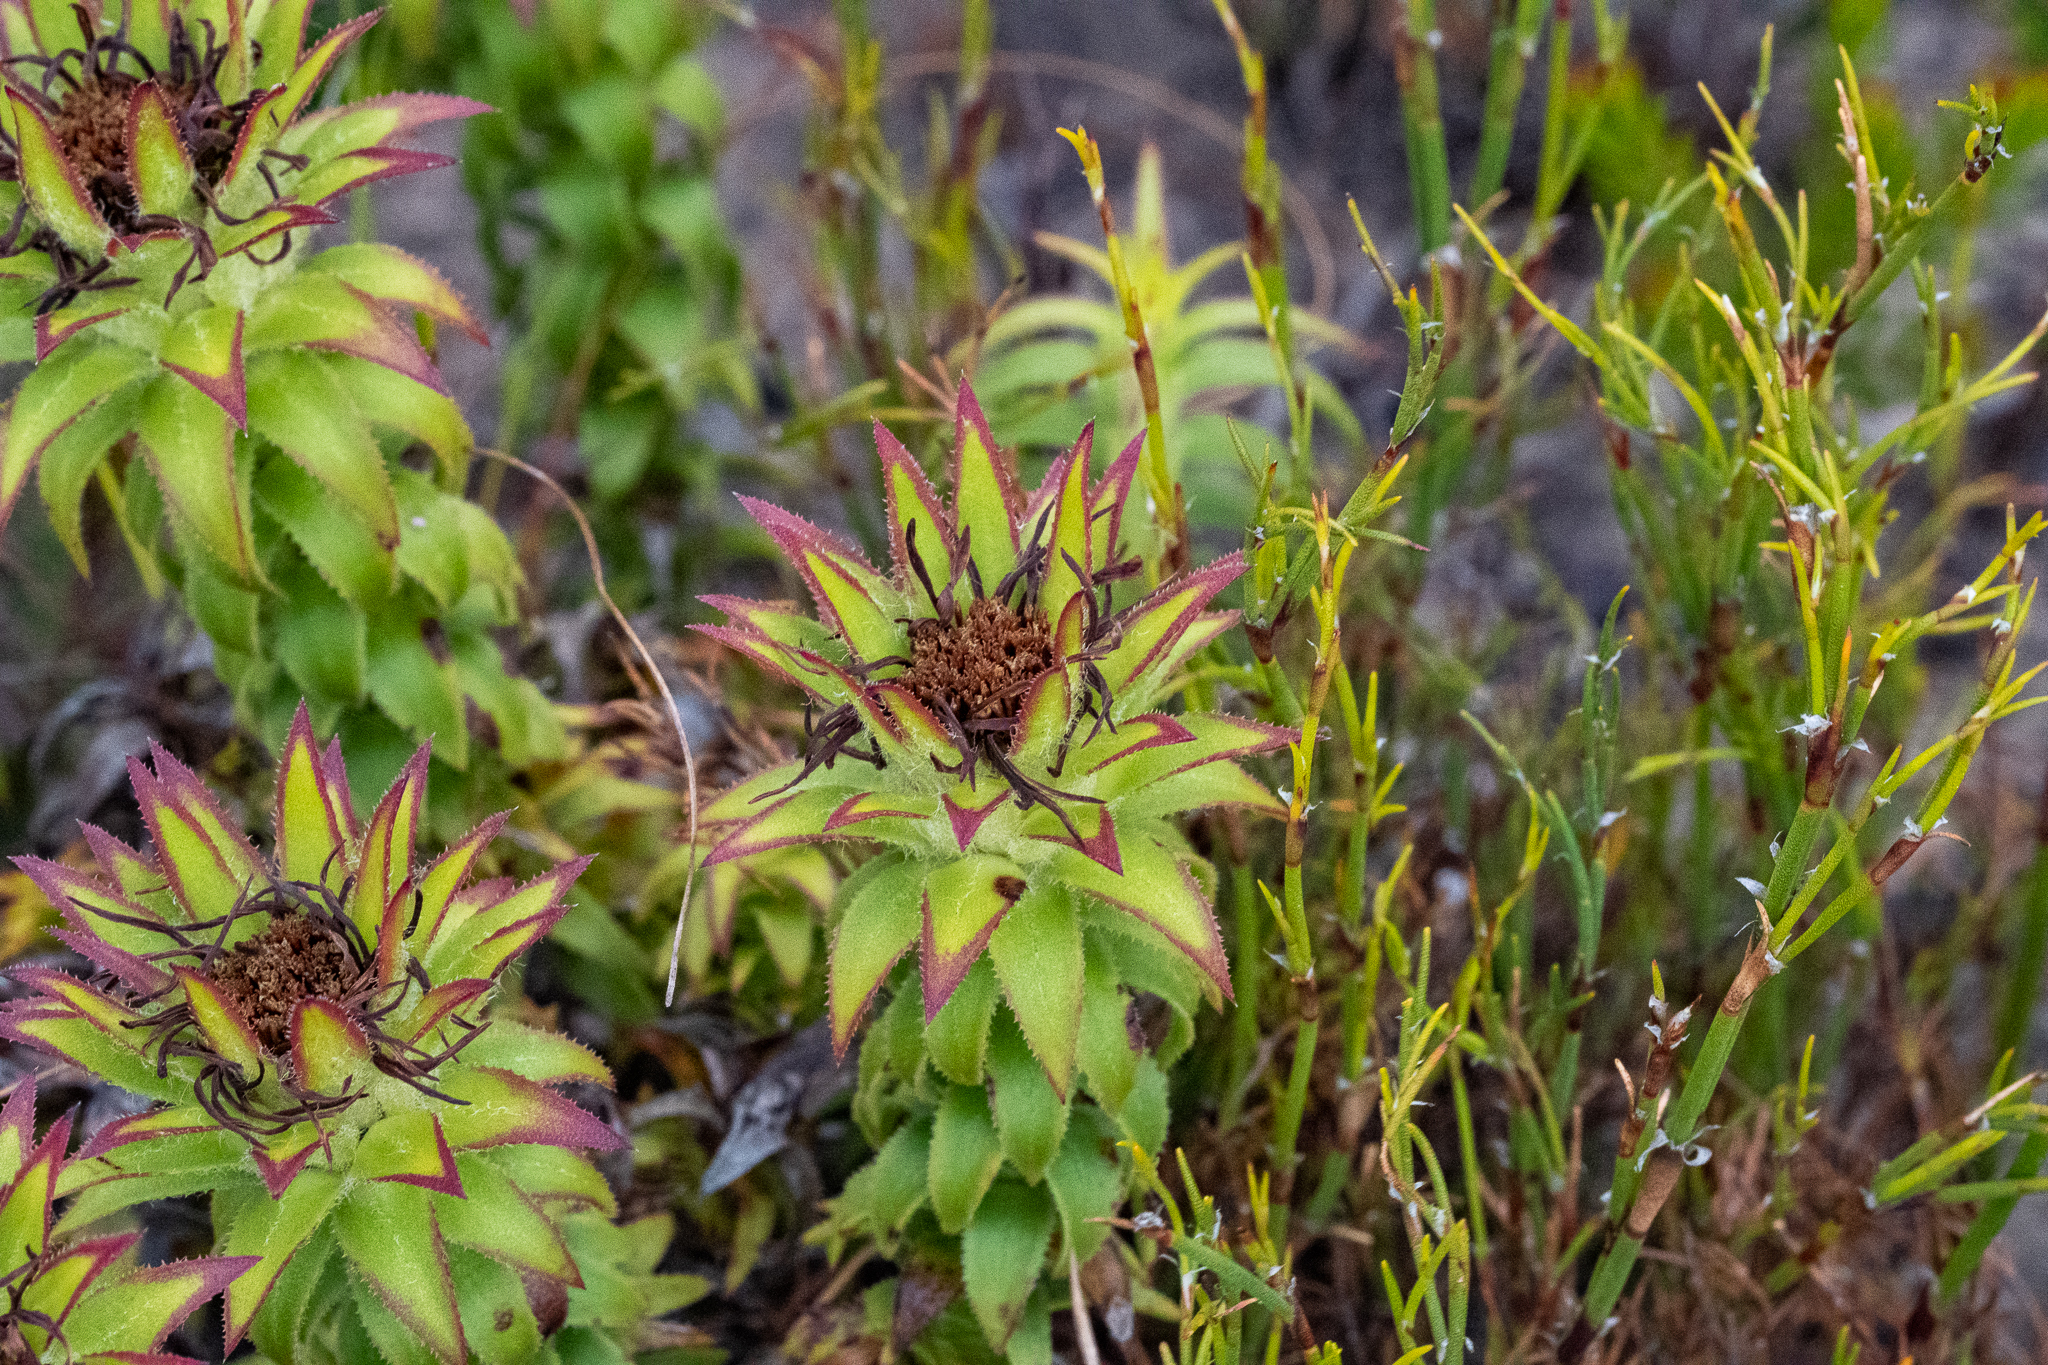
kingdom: Plantae
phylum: Tracheophyta
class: Magnoliopsida
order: Asterales
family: Asteraceae
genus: Oedera
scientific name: Oedera imbricata
